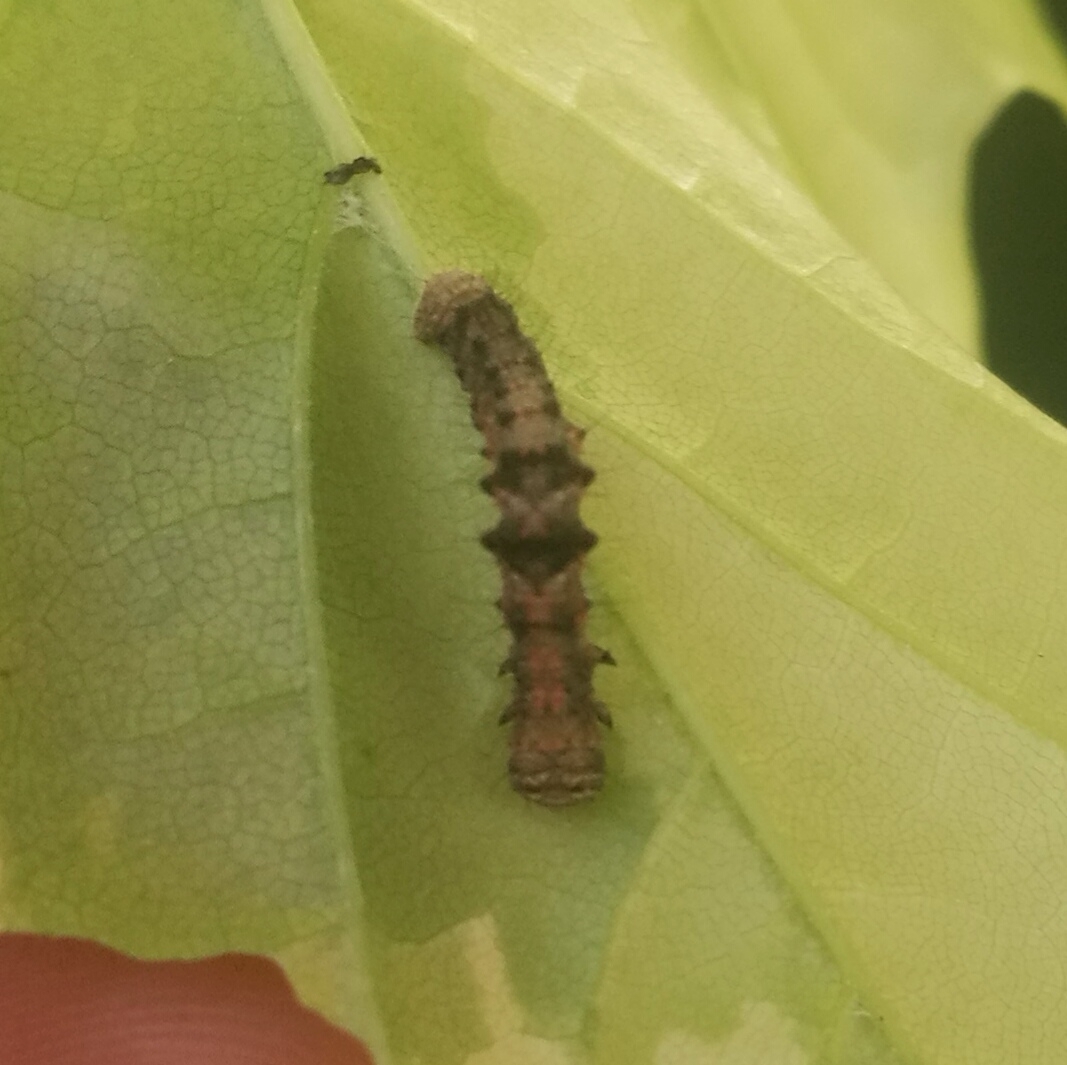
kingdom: Animalia
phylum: Arthropoda
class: Insecta
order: Lepidoptera
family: Geometridae
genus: Phigalia
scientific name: Phigalia pilosaria
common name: Pale brindled beauty
